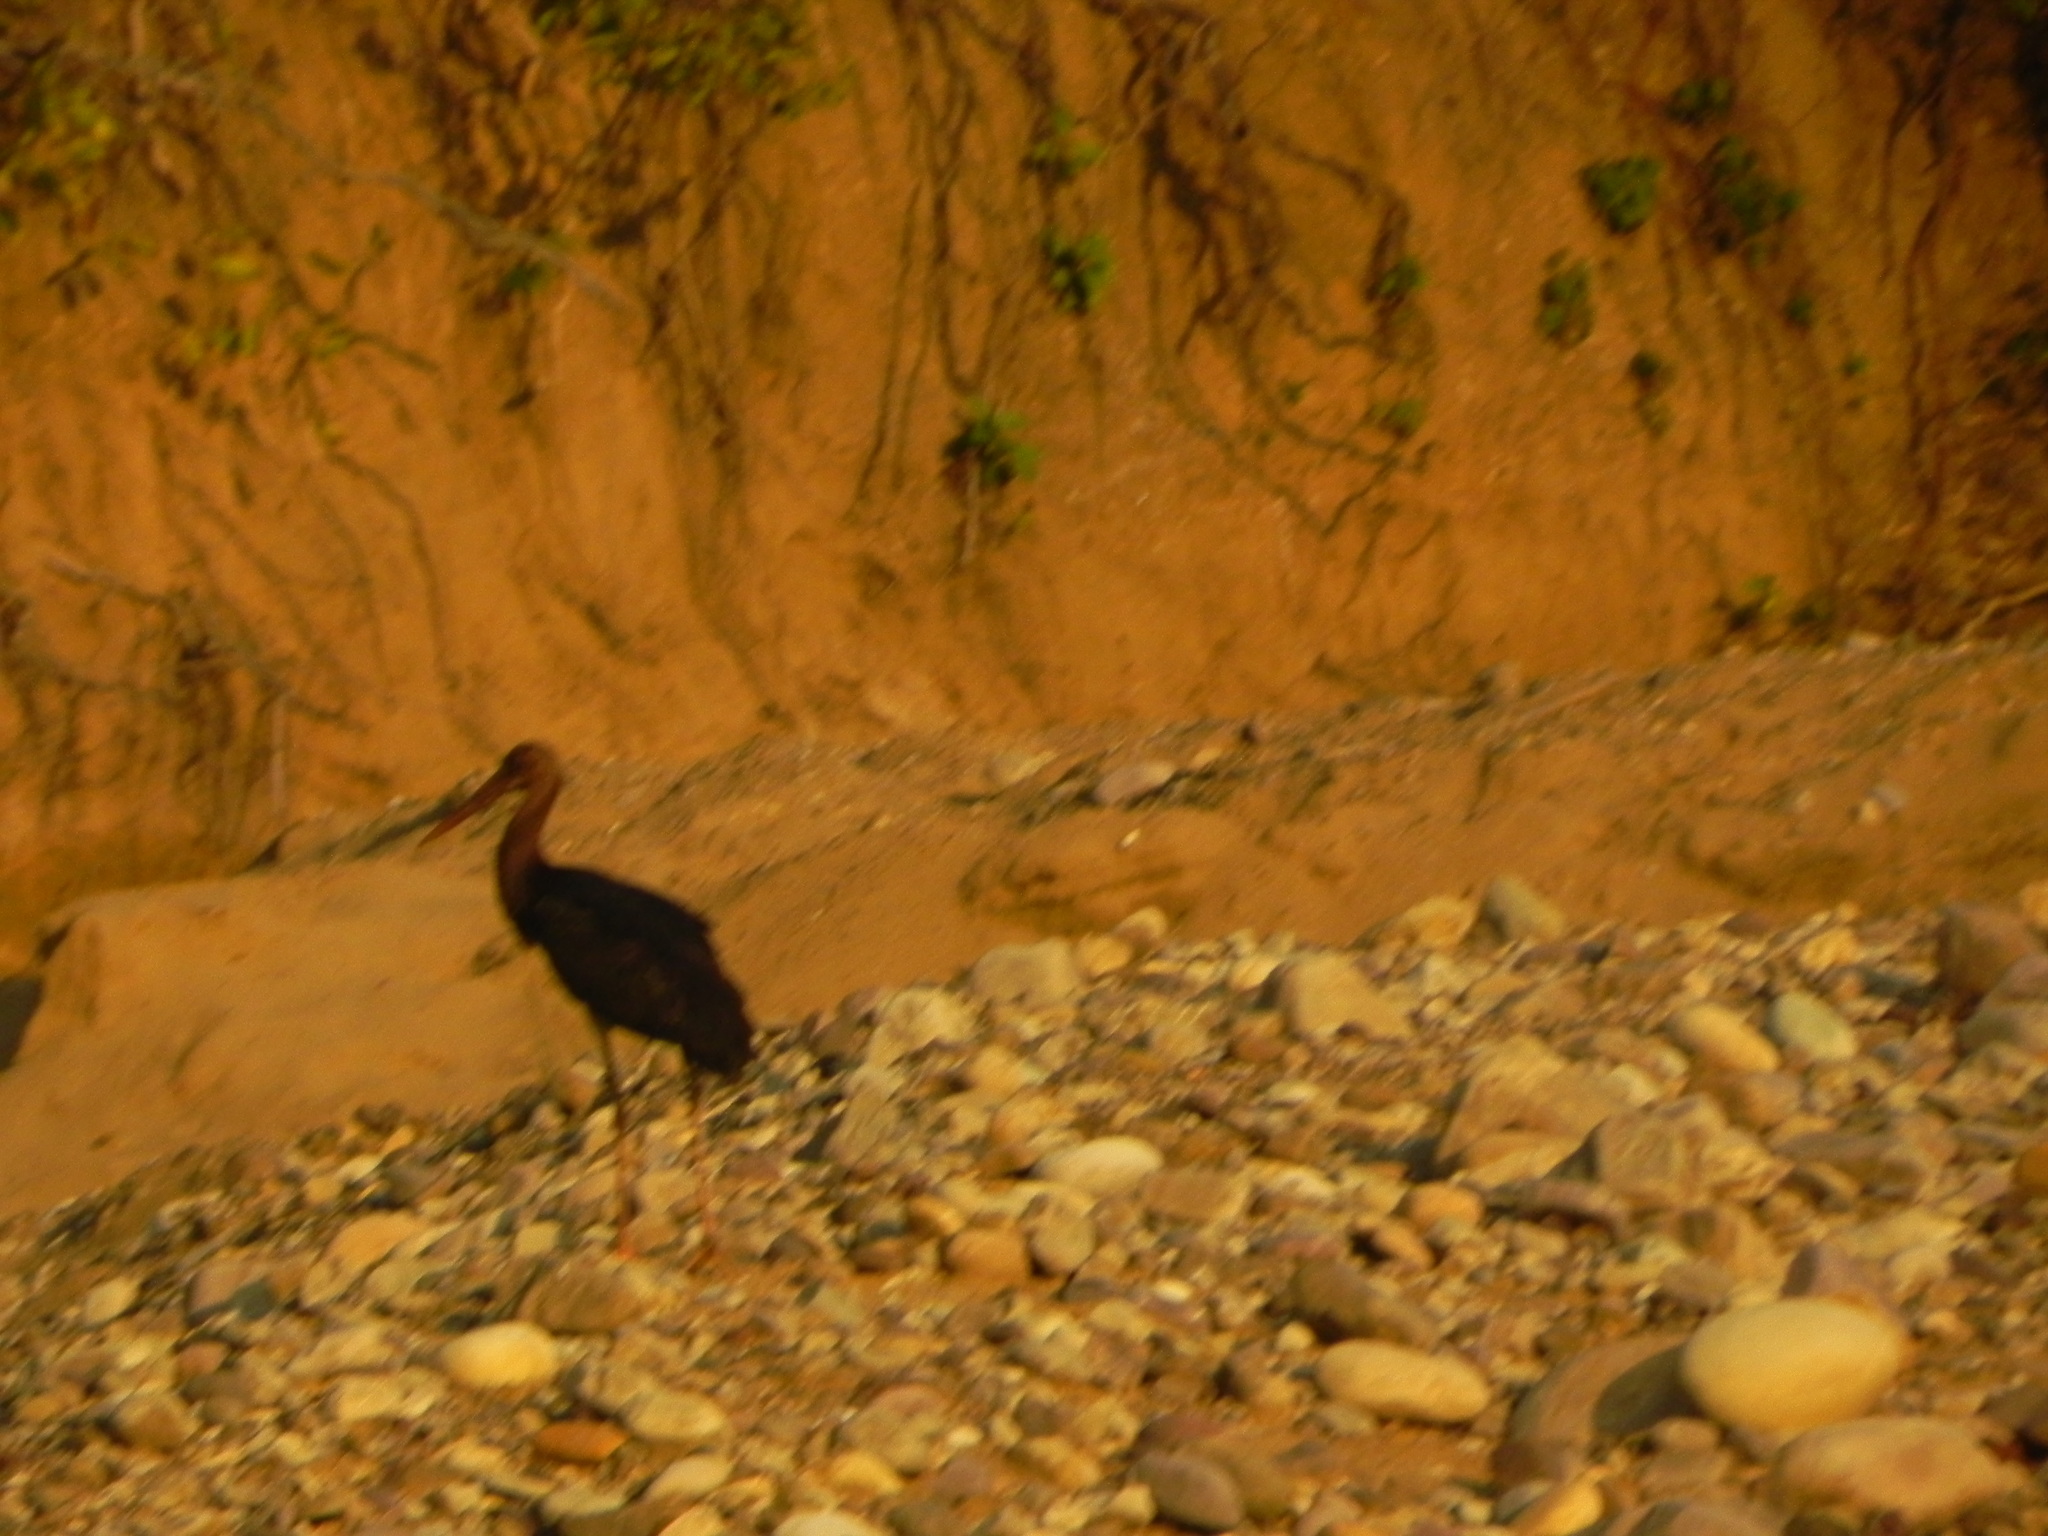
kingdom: Animalia
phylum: Chordata
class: Aves
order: Ciconiiformes
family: Ciconiidae
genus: Ciconia
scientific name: Ciconia nigra
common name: Black stork
